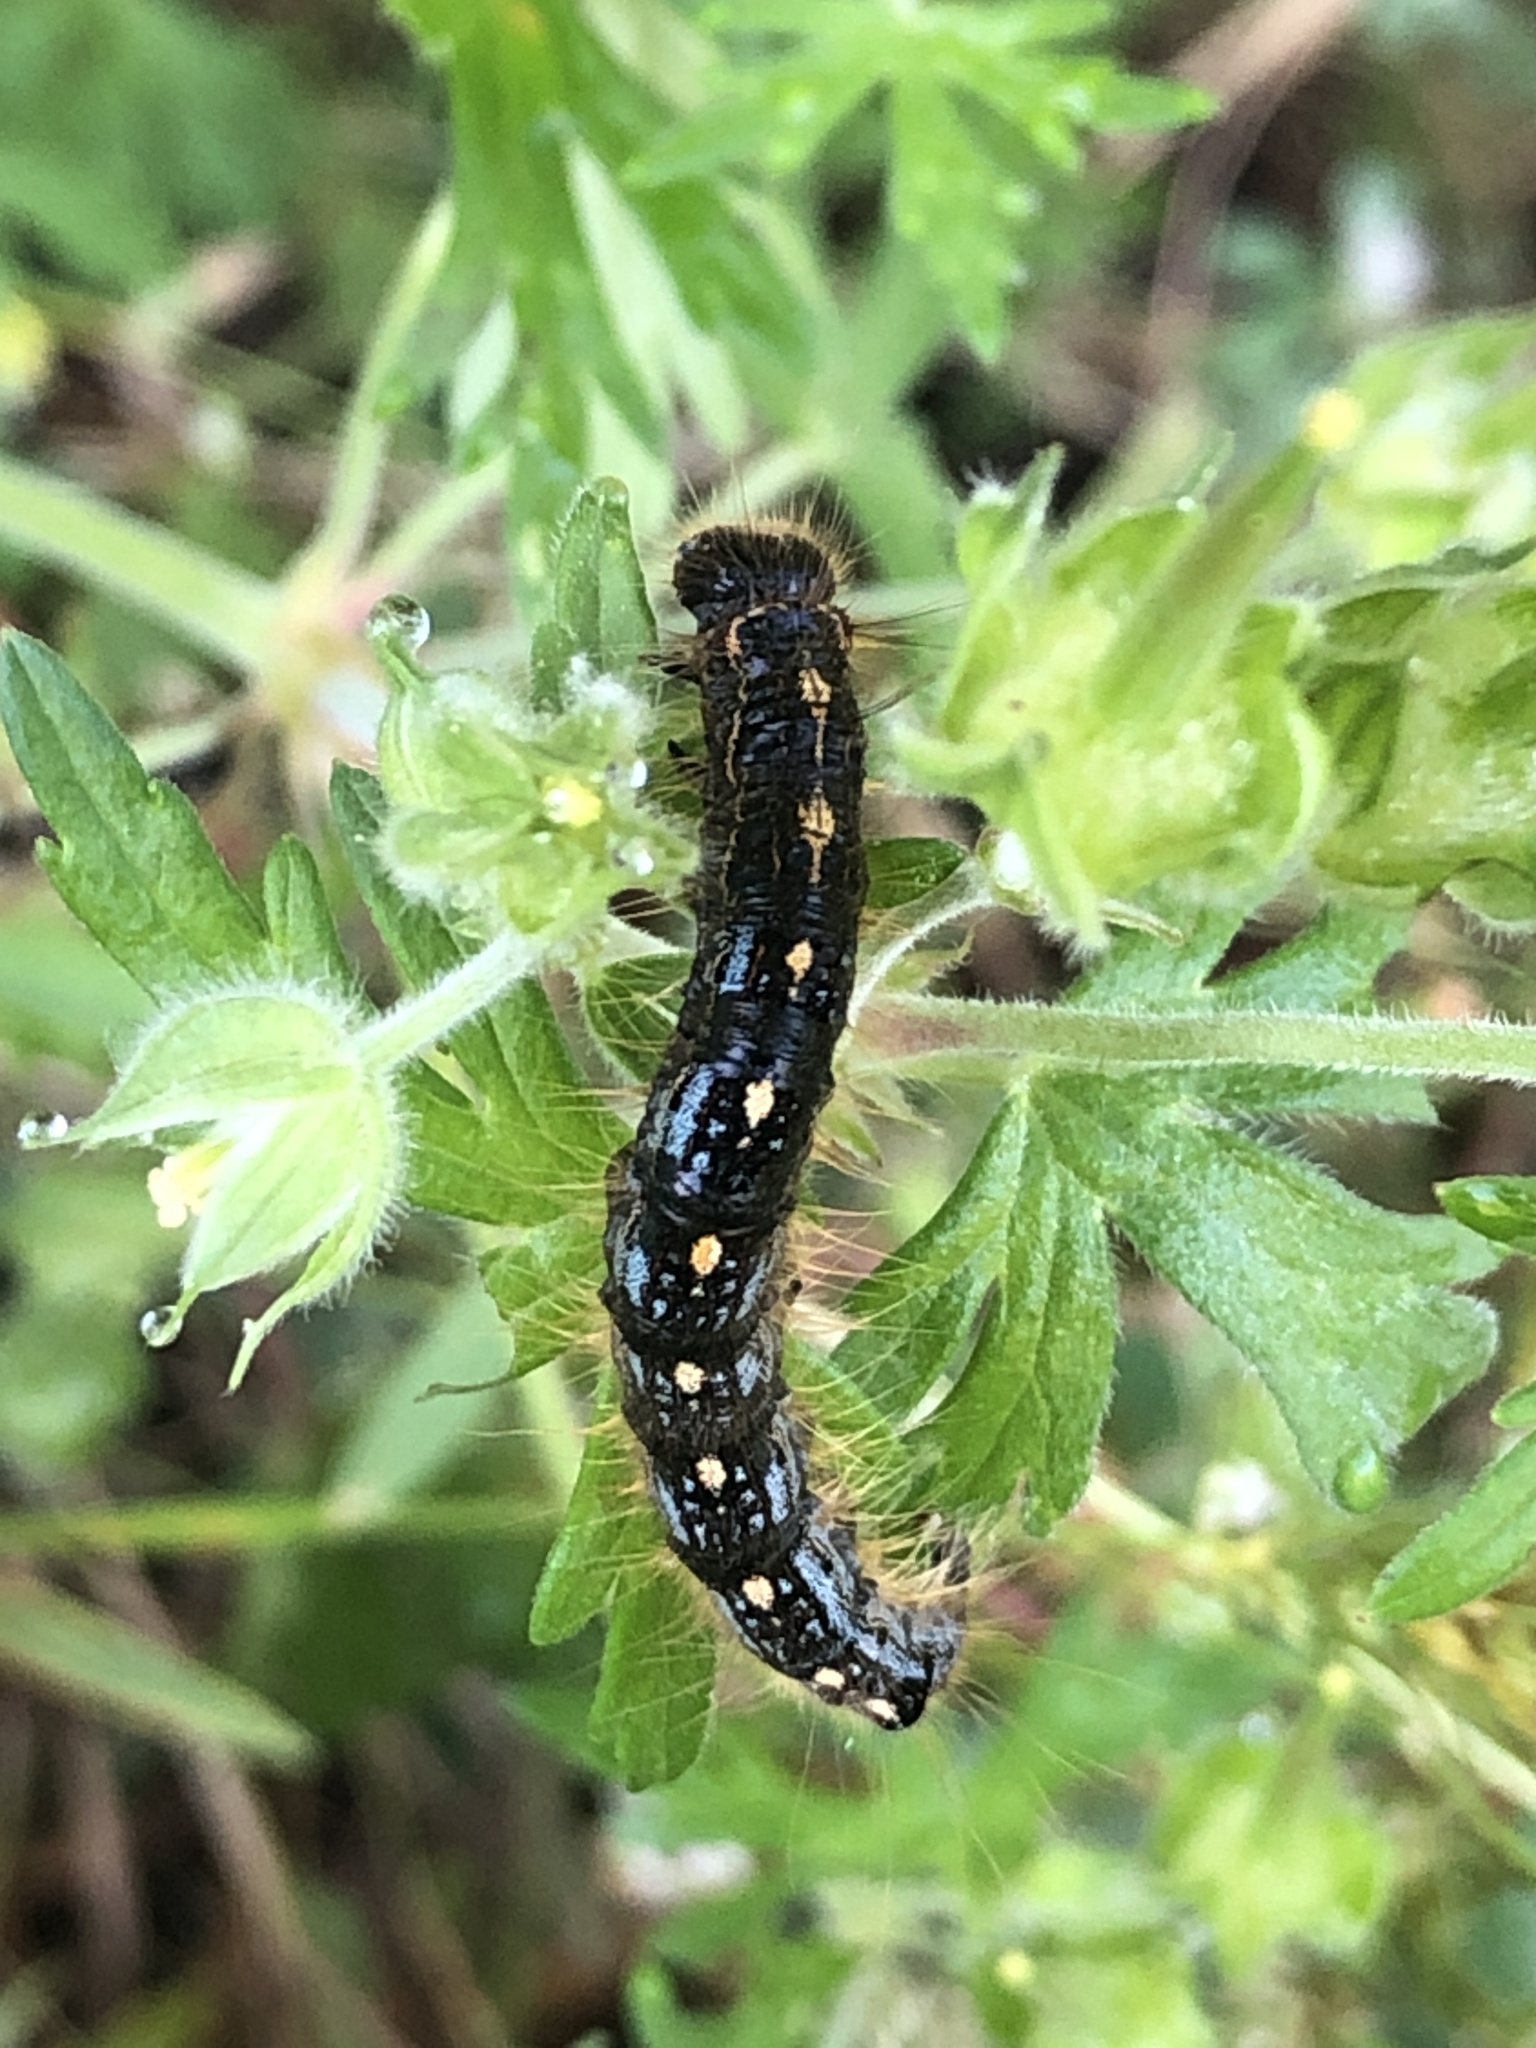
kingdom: Animalia
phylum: Arthropoda
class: Insecta
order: Lepidoptera
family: Lasiocampidae
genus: Malacosoma
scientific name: Malacosoma disstria
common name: Forest tent caterpillar
